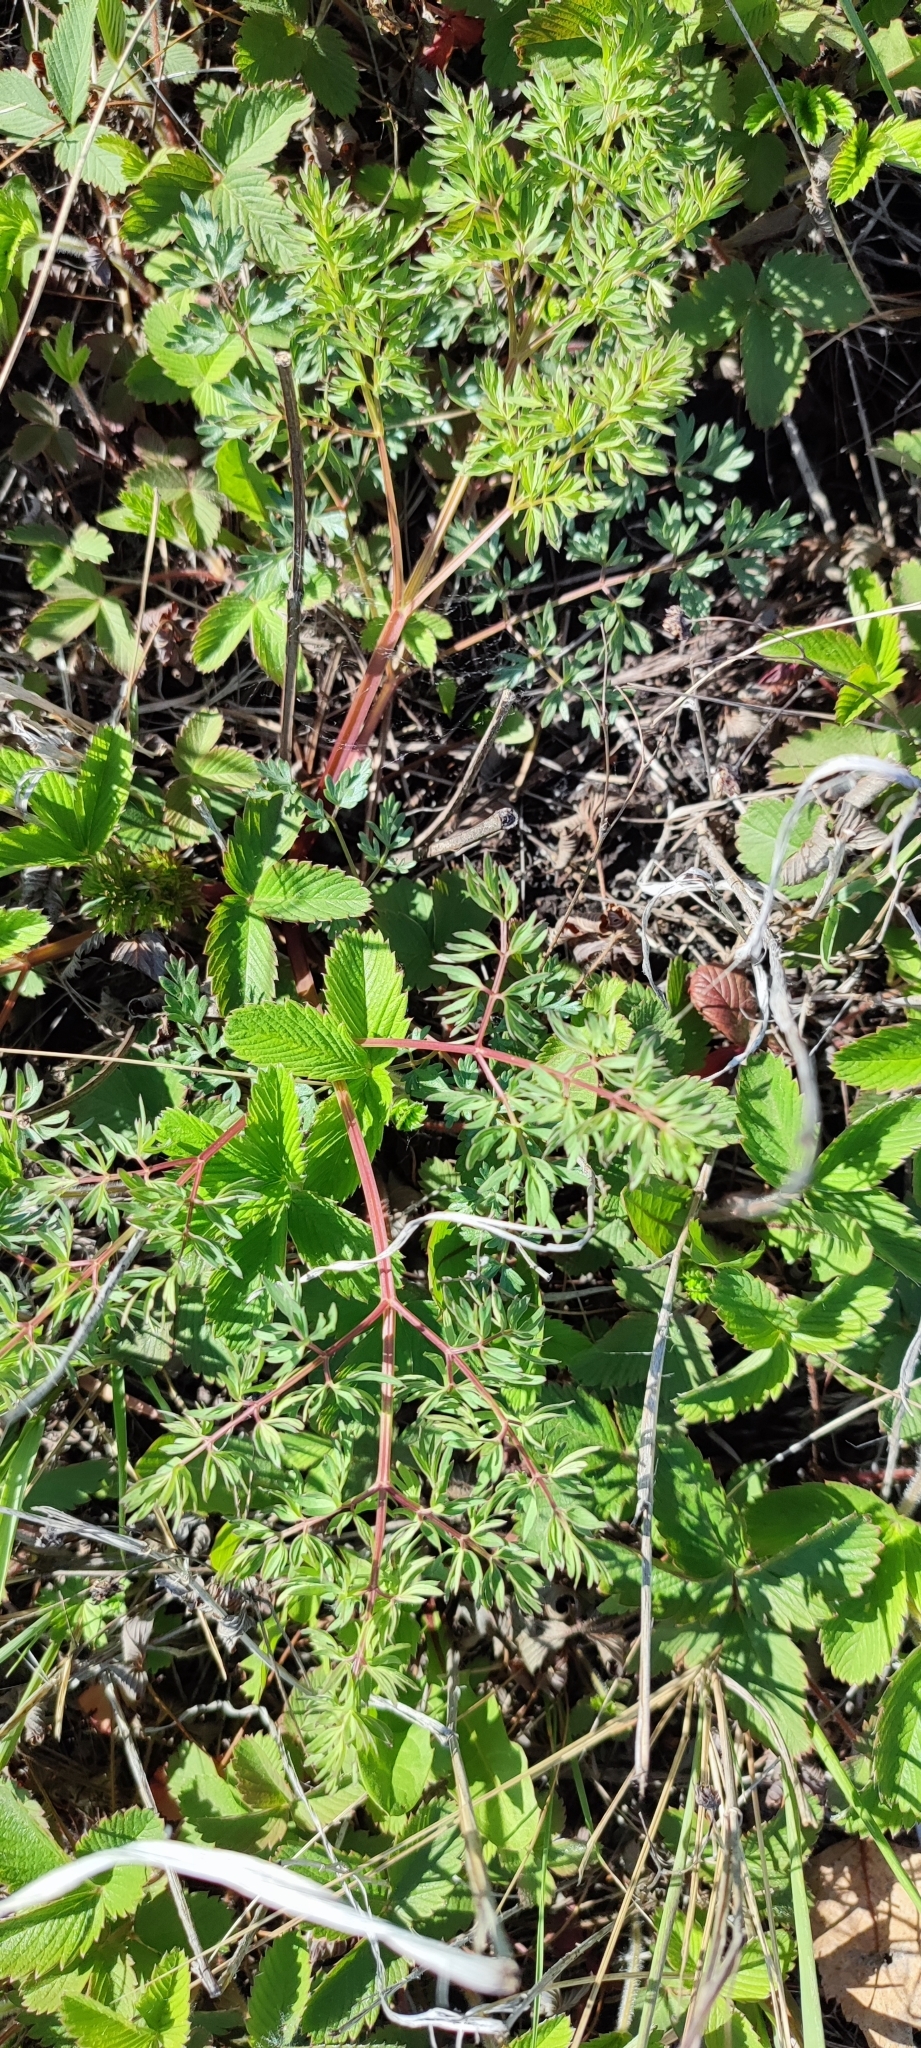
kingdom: Plantae
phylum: Tracheophyta
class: Magnoliopsida
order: Apiales
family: Apiaceae
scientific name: Apiaceae
